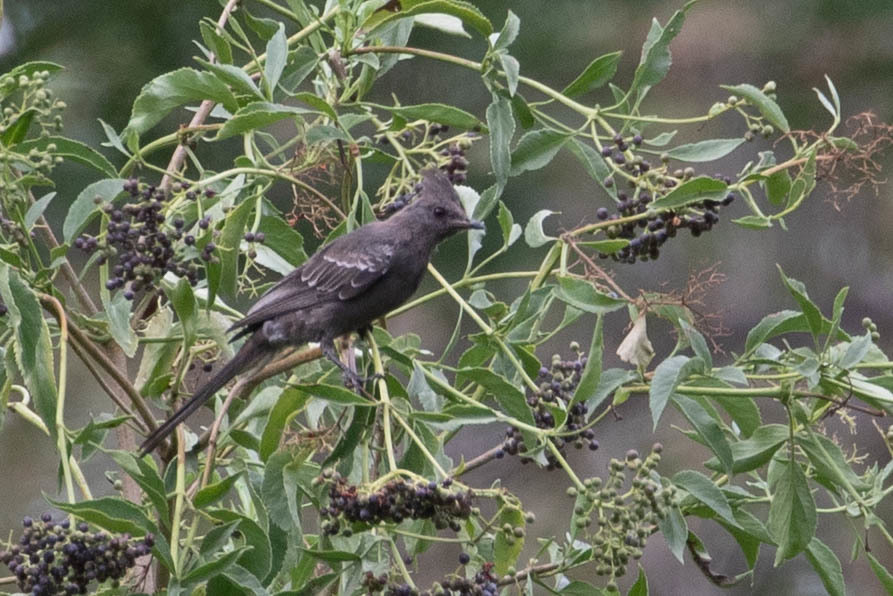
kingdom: Animalia
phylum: Chordata
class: Aves
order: Passeriformes
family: Ptilogonatidae
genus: Phainopepla
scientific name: Phainopepla nitens
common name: Phainopepla
